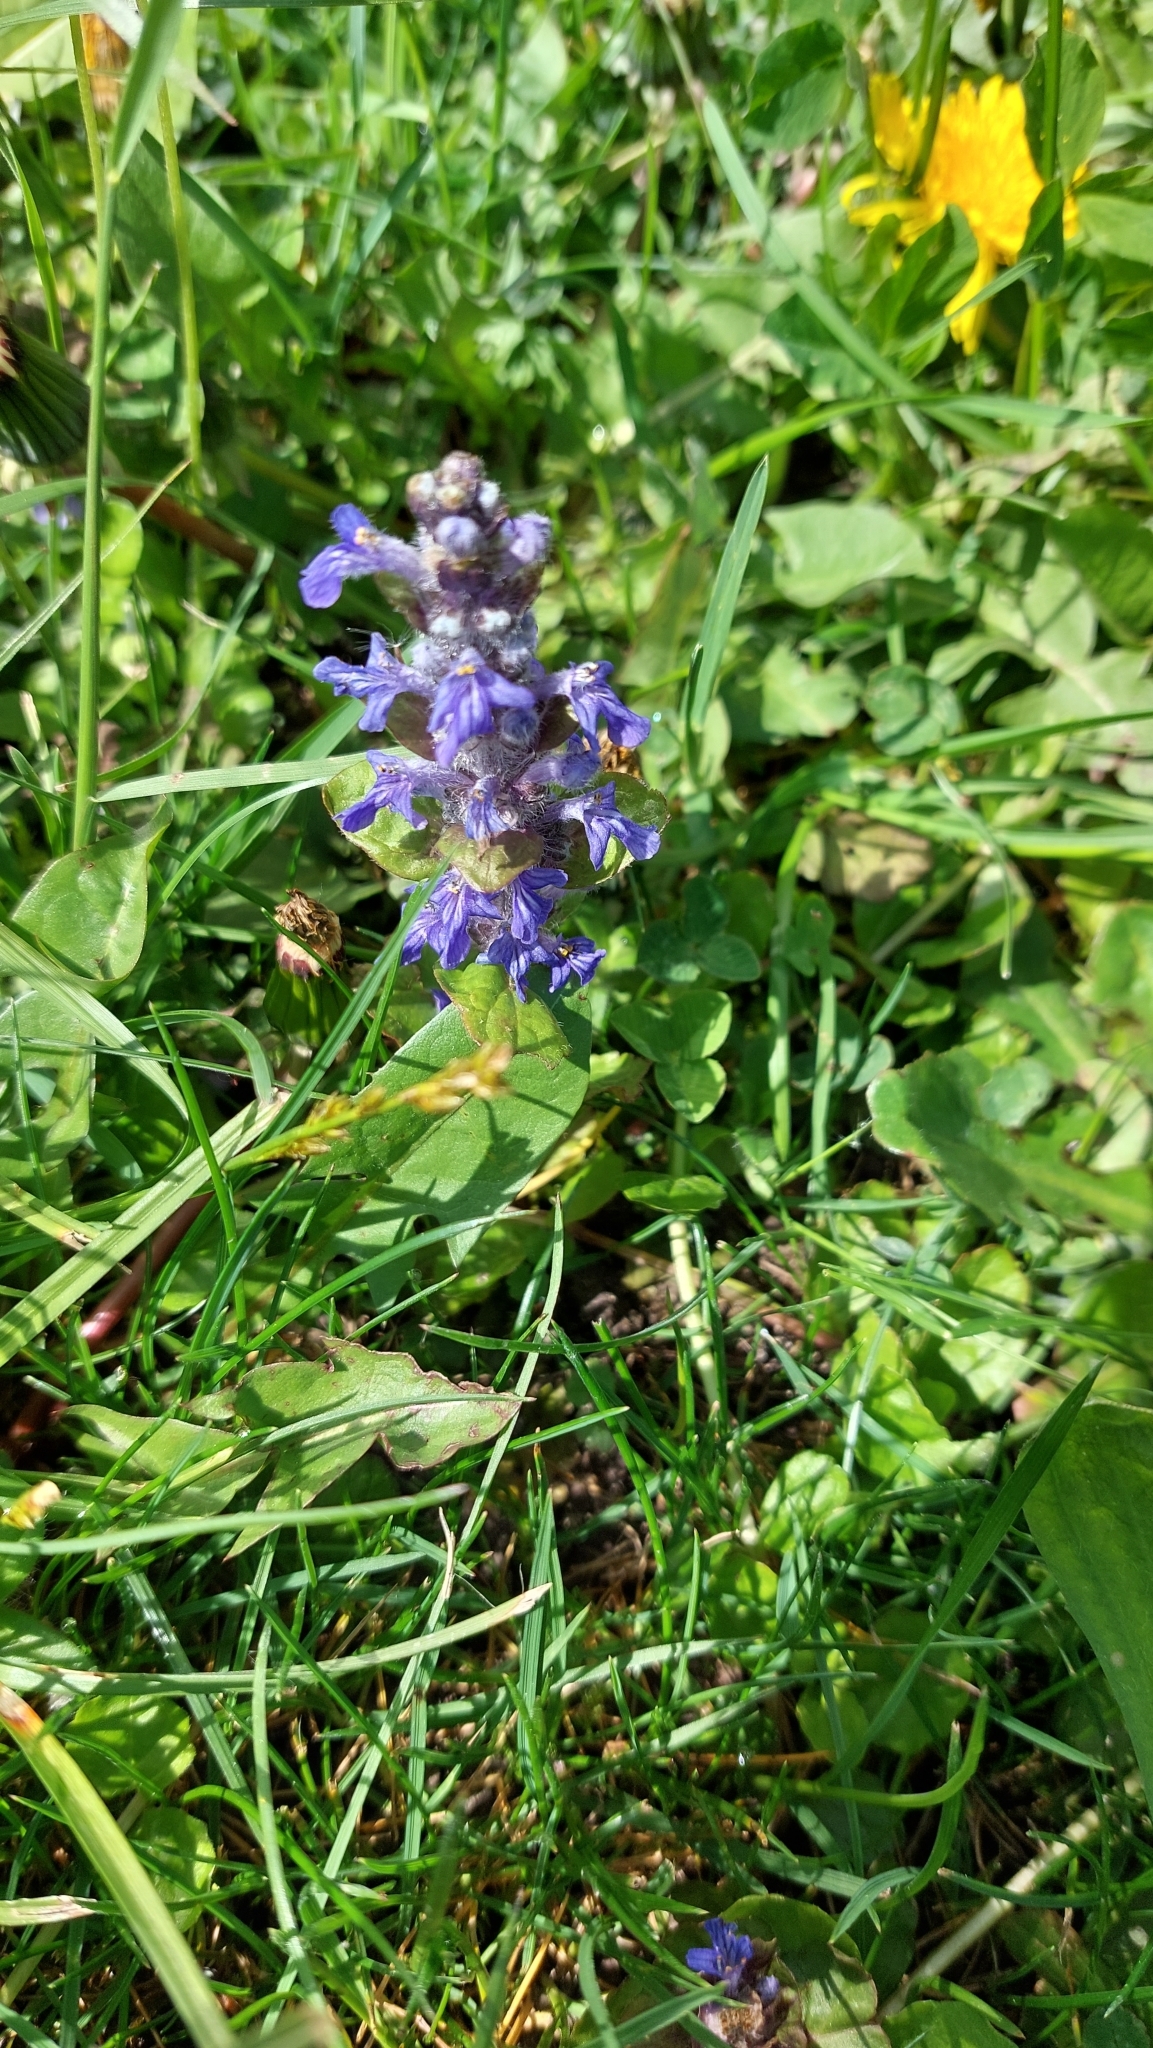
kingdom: Plantae
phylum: Tracheophyta
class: Magnoliopsida
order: Lamiales
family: Lamiaceae
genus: Ajuga
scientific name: Ajuga reptans
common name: Bugle
